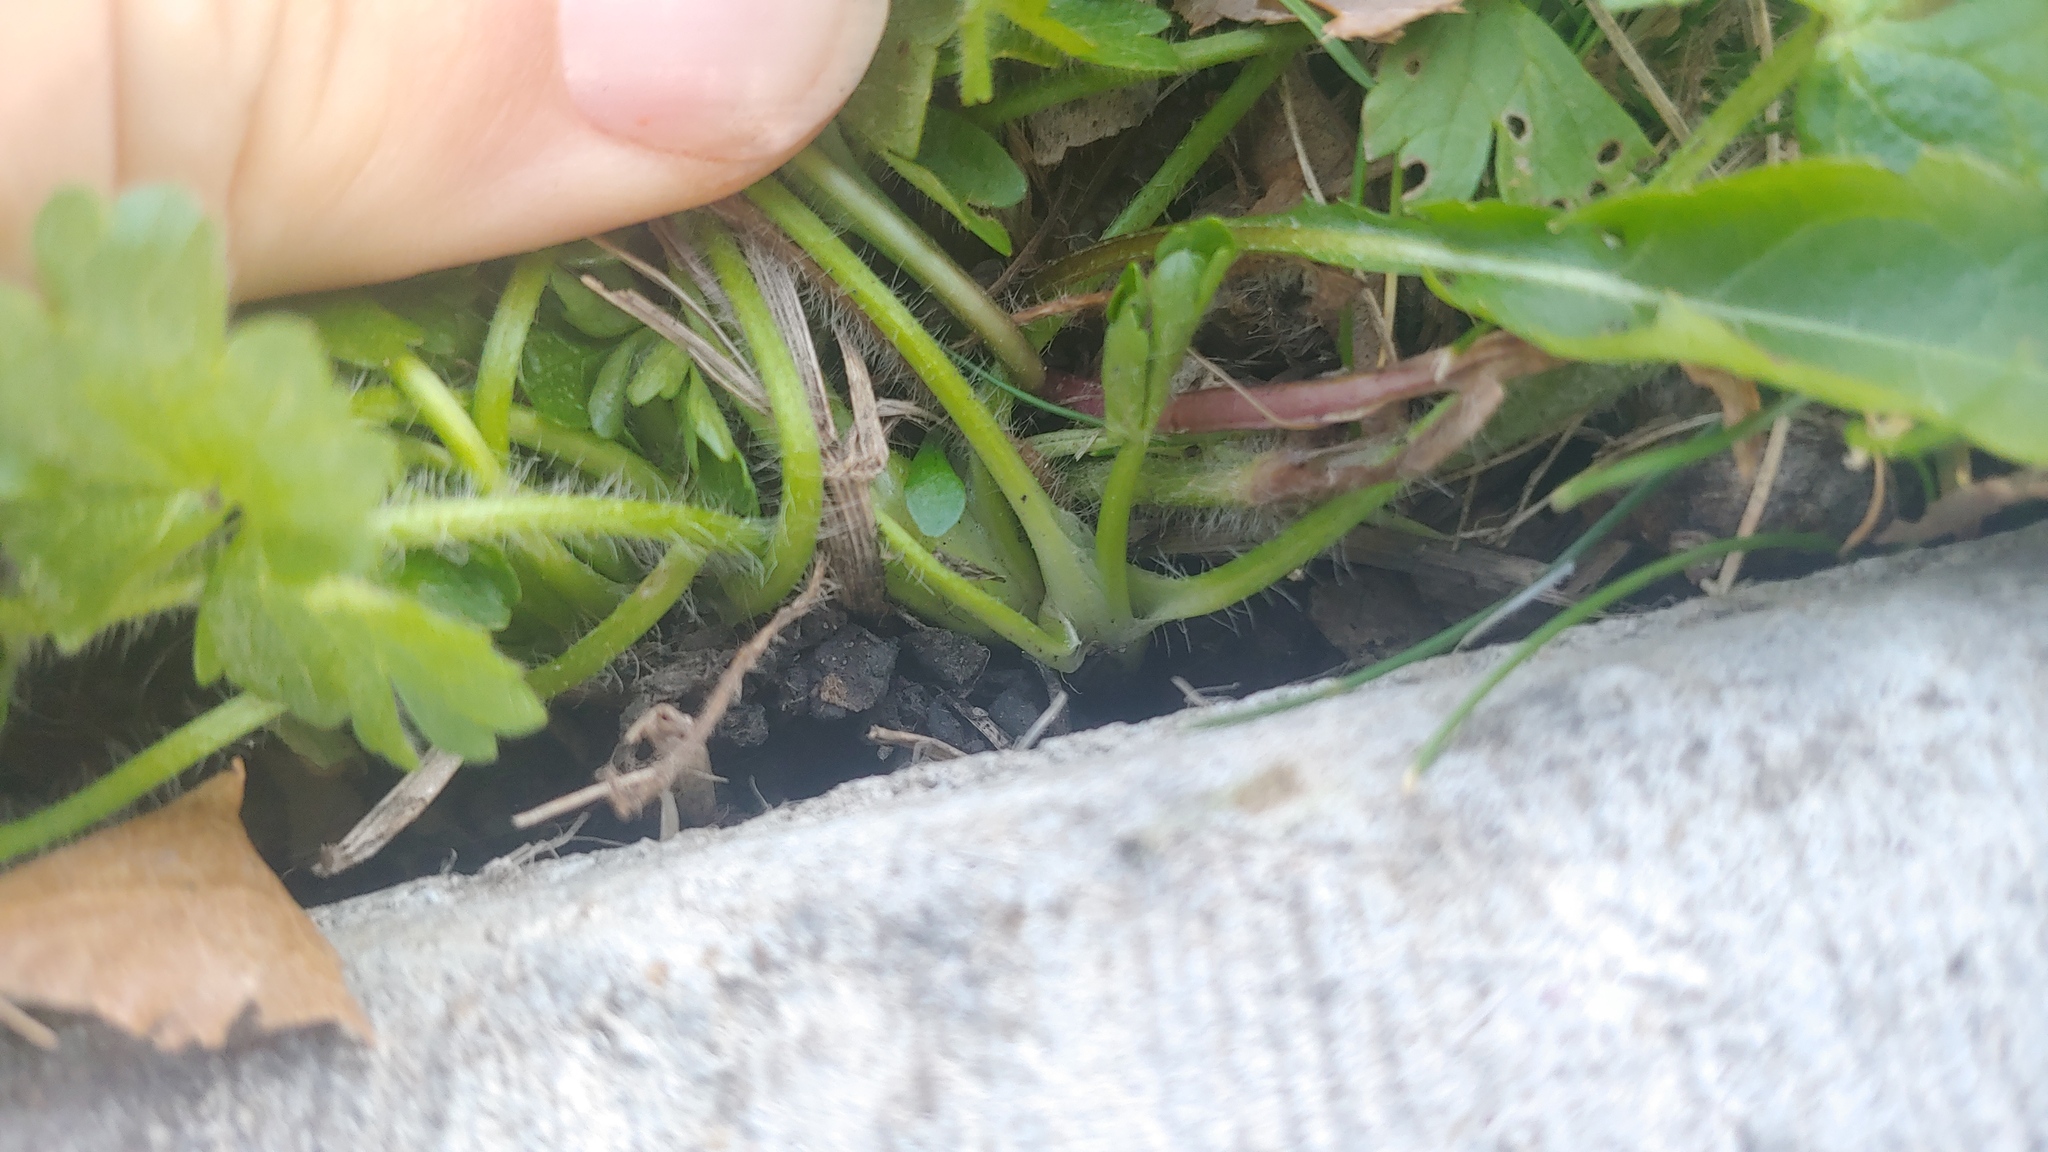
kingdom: Plantae
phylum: Tracheophyta
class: Magnoliopsida
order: Ranunculales
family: Ranunculaceae
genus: Ranunculus
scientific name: Ranunculus sardous
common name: Hairy buttercup
